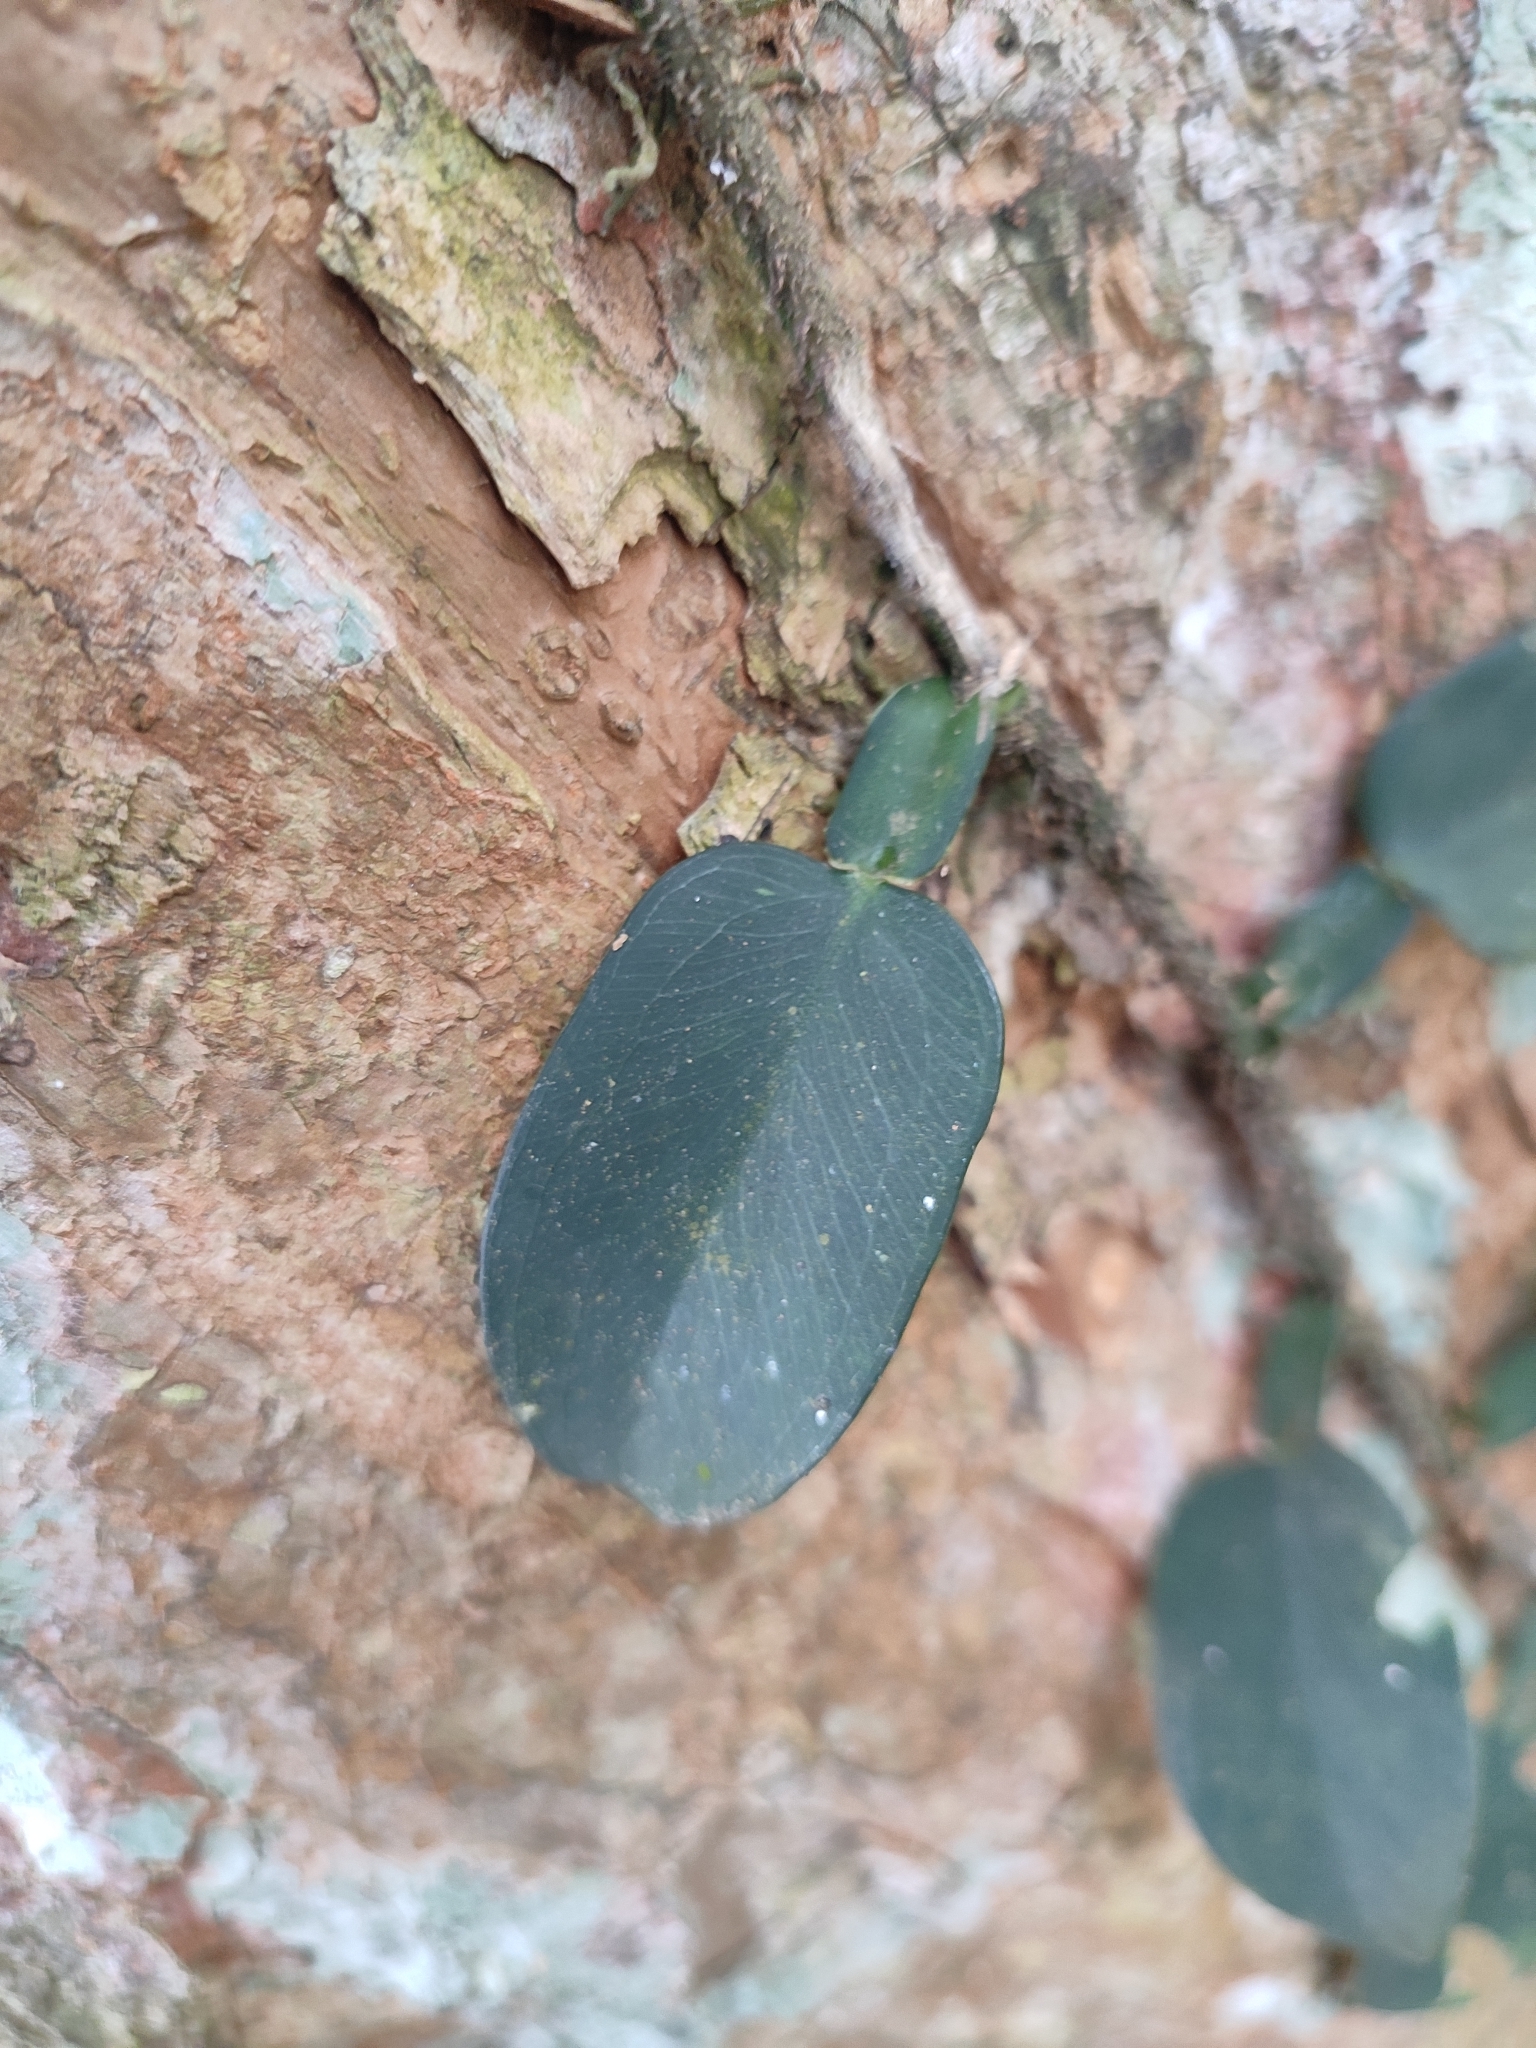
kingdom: Plantae
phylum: Tracheophyta
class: Liliopsida
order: Alismatales
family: Araceae
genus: Pothos
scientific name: Pothos scandens
